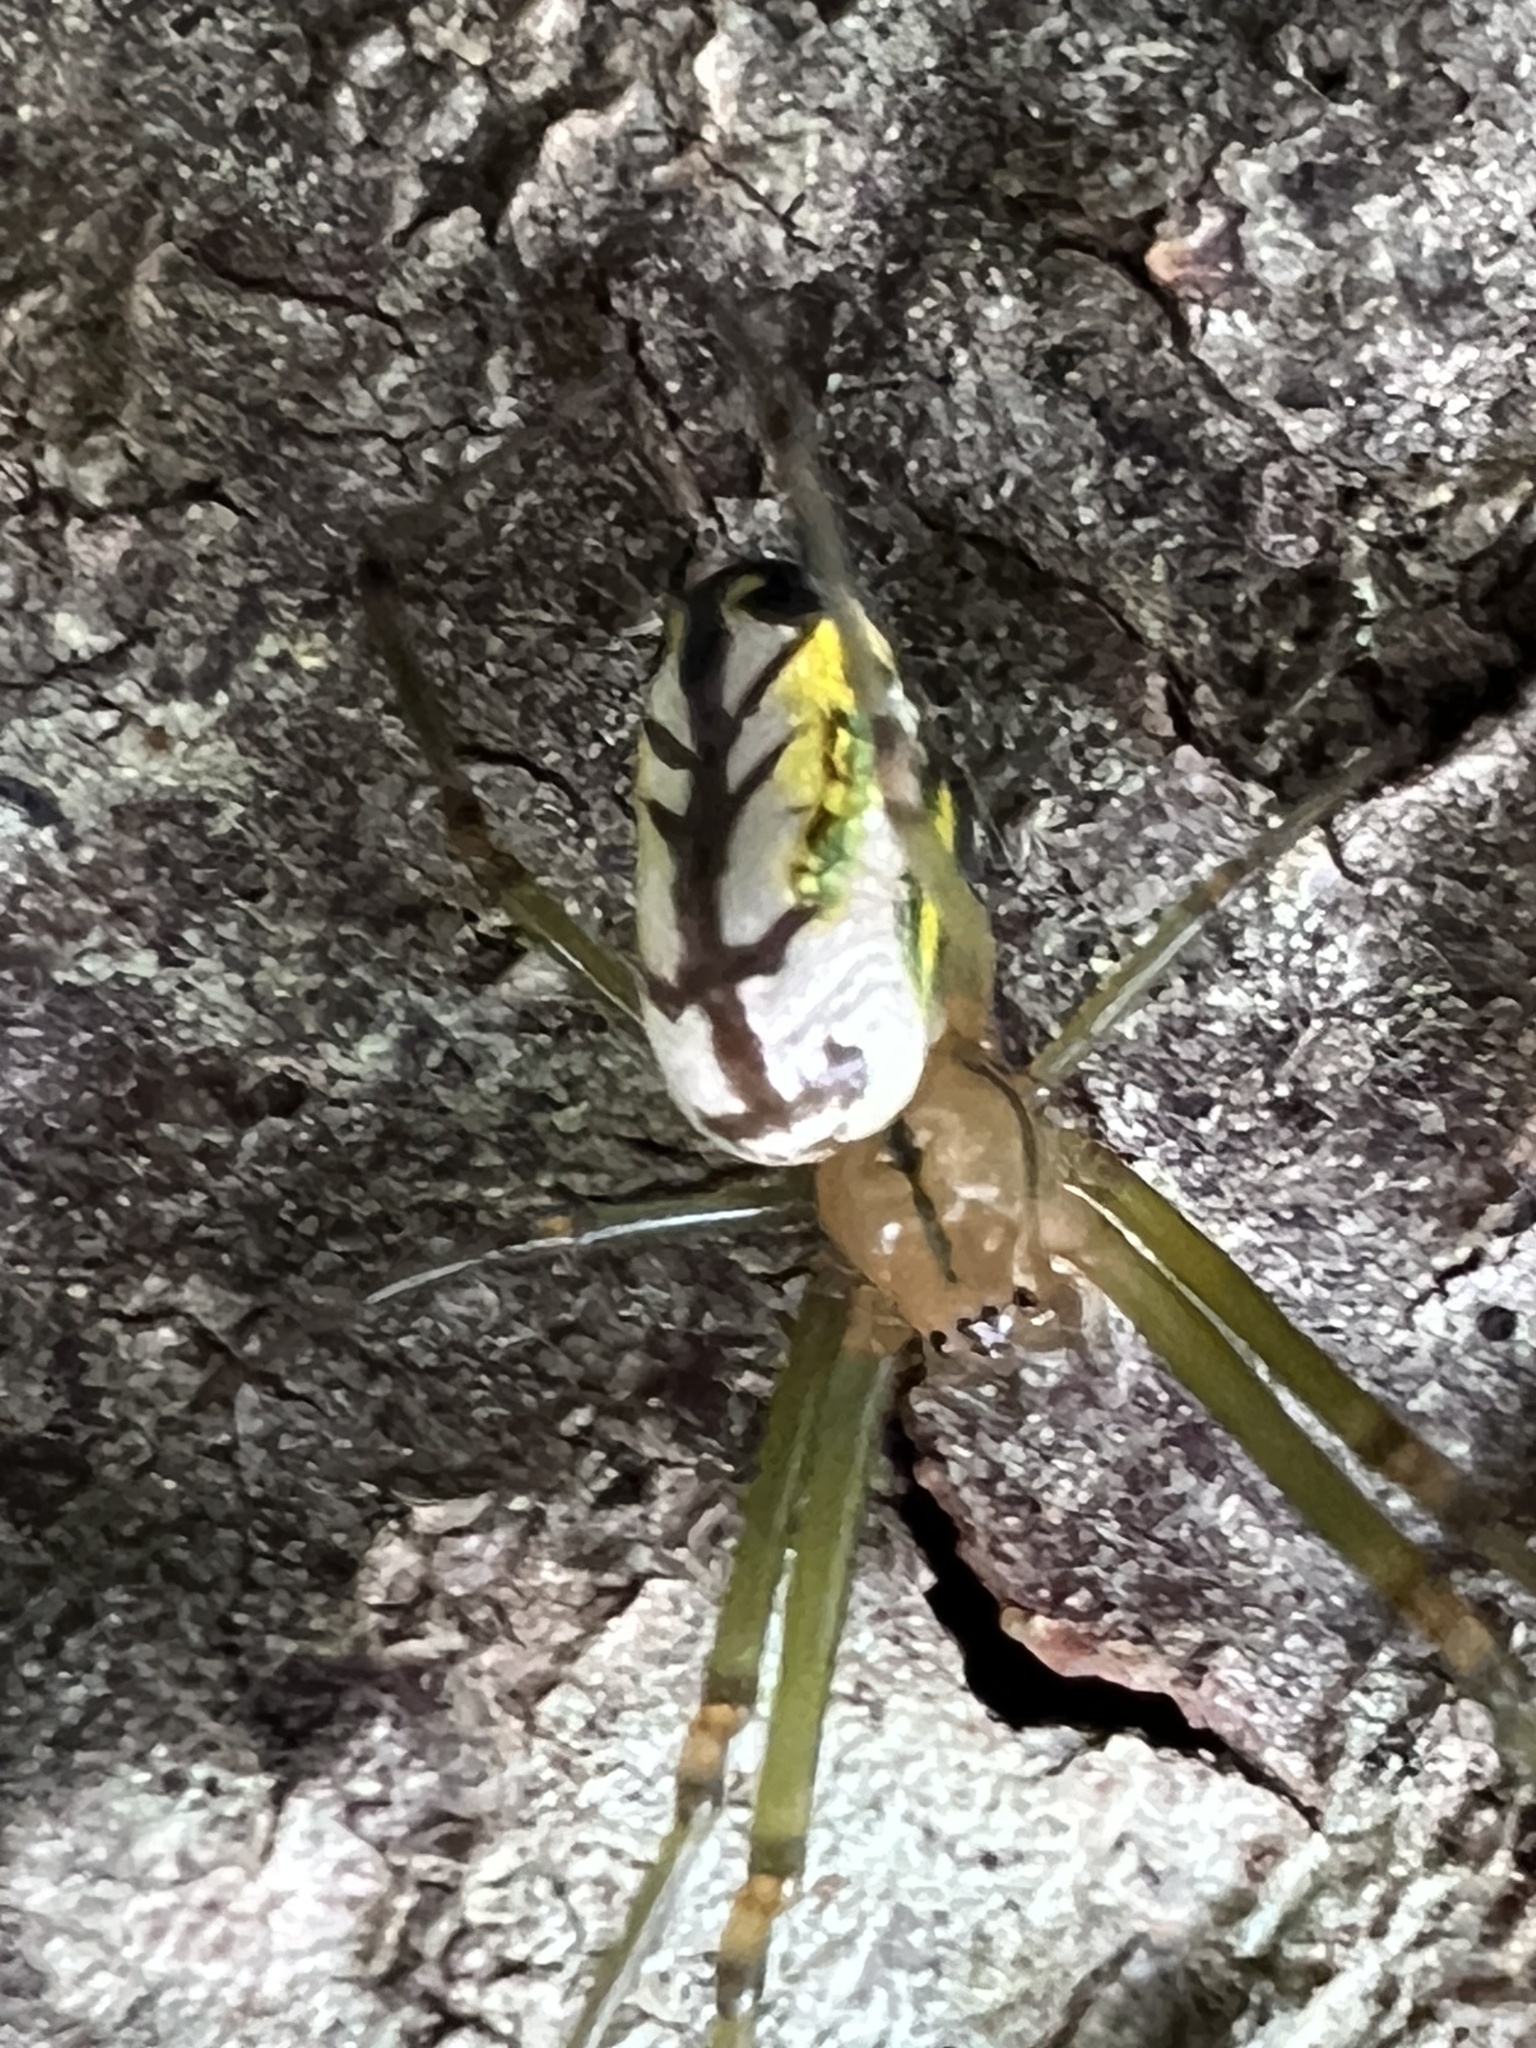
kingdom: Animalia
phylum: Arthropoda
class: Arachnida
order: Araneae
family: Tetragnathidae
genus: Leucauge
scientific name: Leucauge venusta
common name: Longjawed orb weavers
